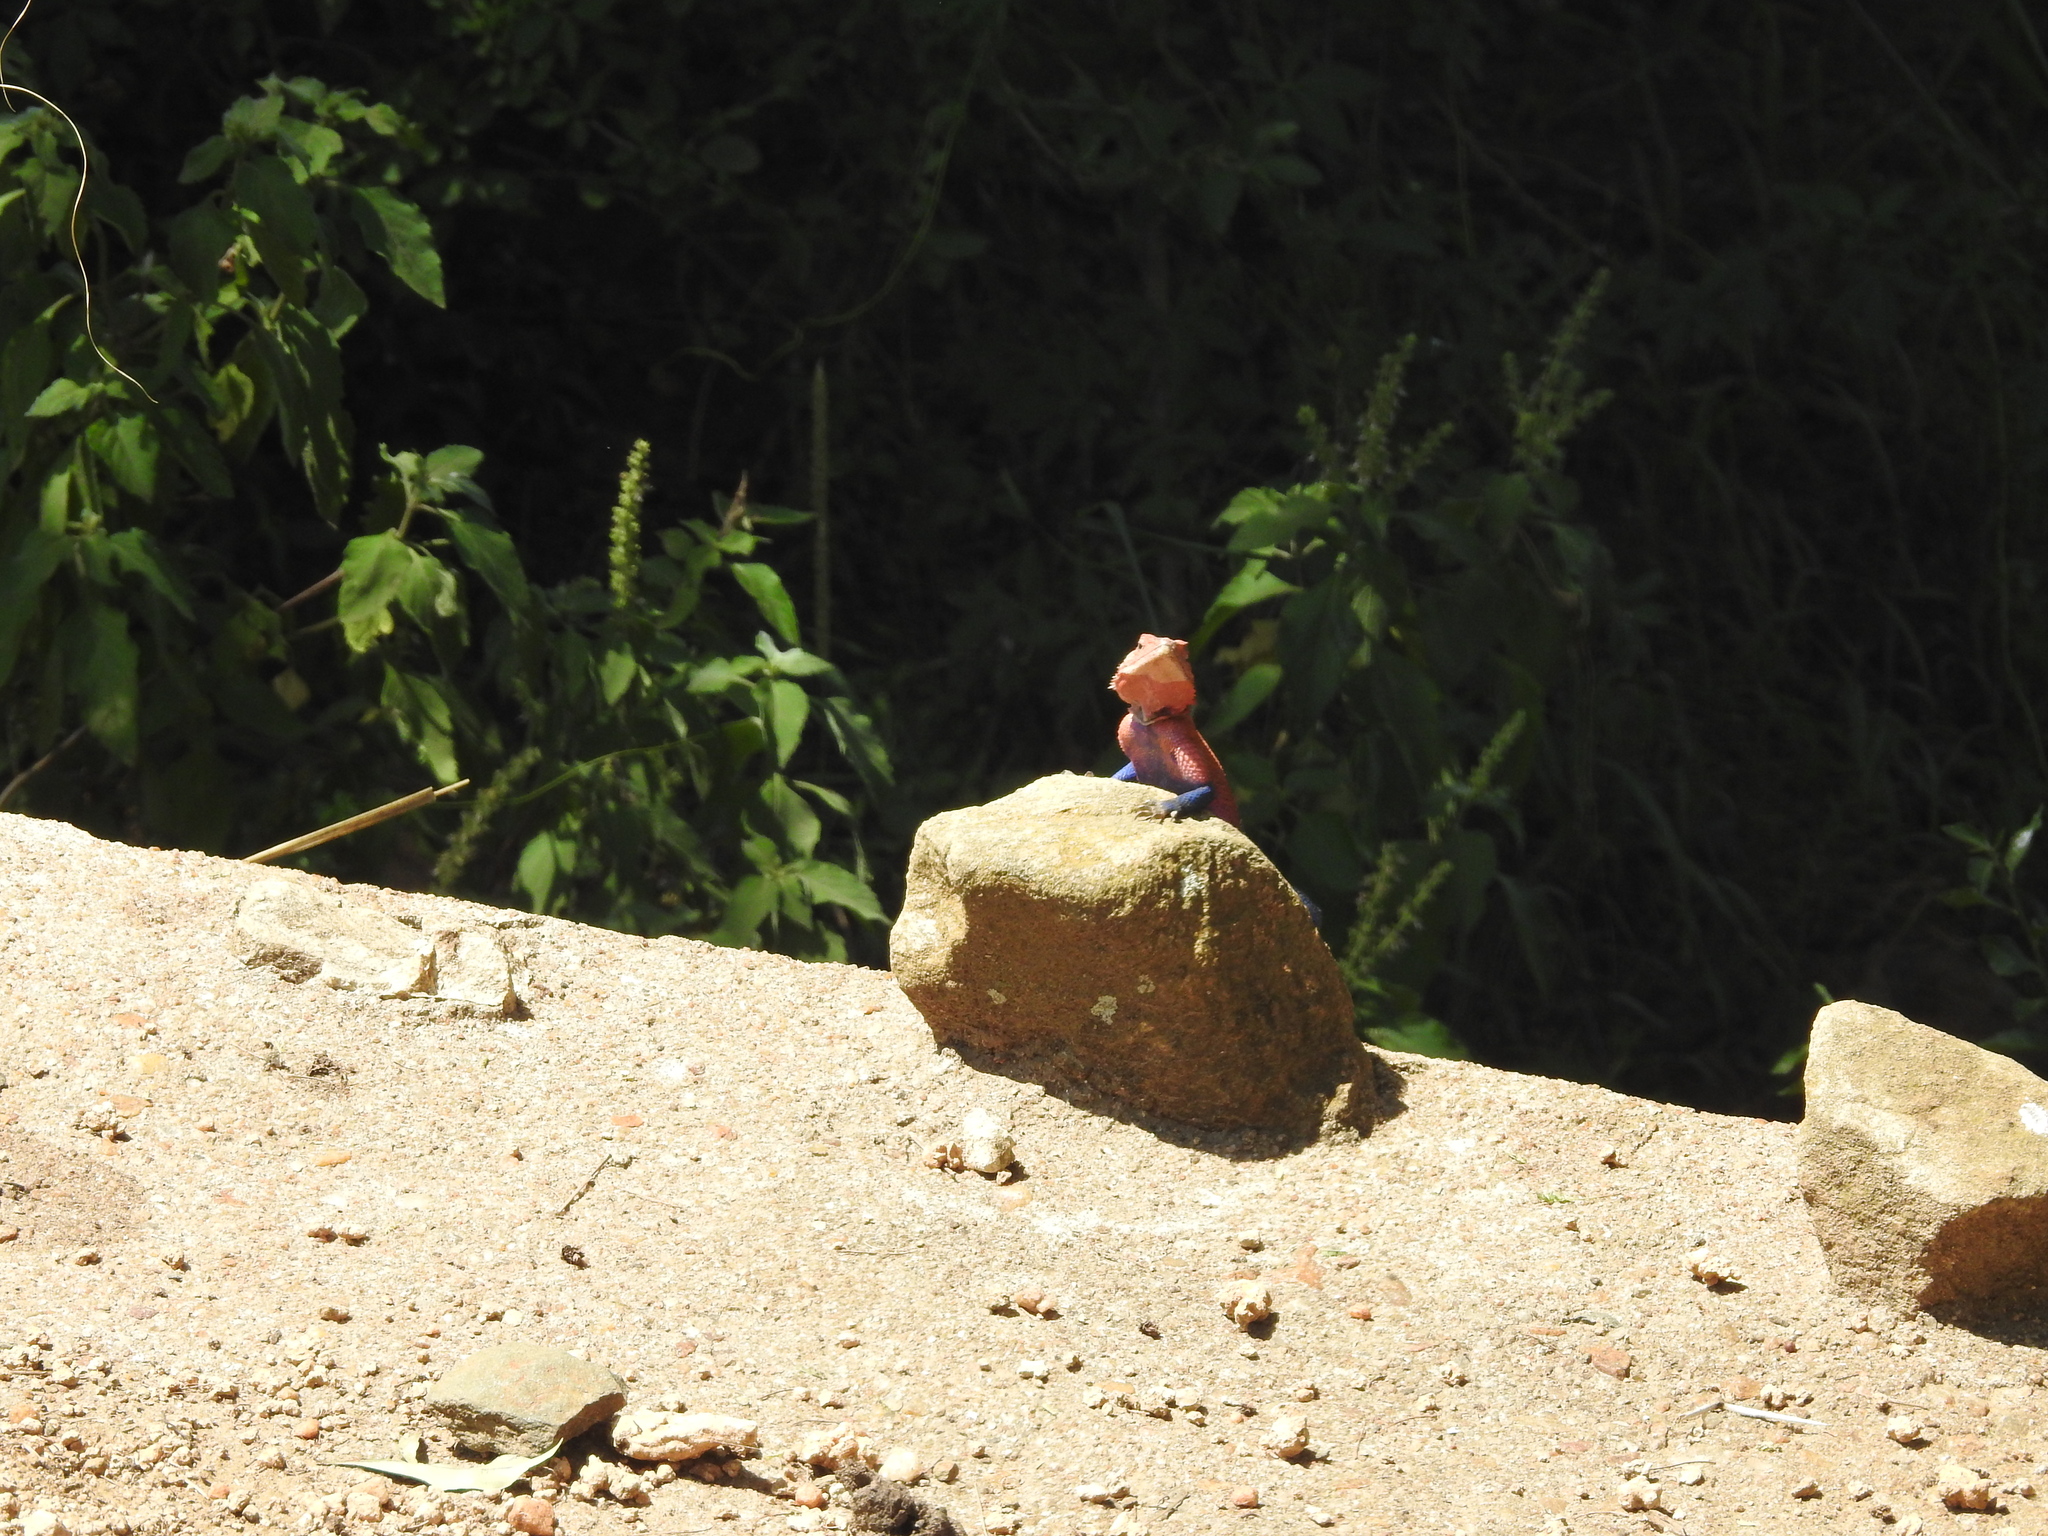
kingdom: Animalia
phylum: Chordata
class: Squamata
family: Agamidae
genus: Agama
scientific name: Agama mwanzae
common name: Mwanza flat-headed agama
